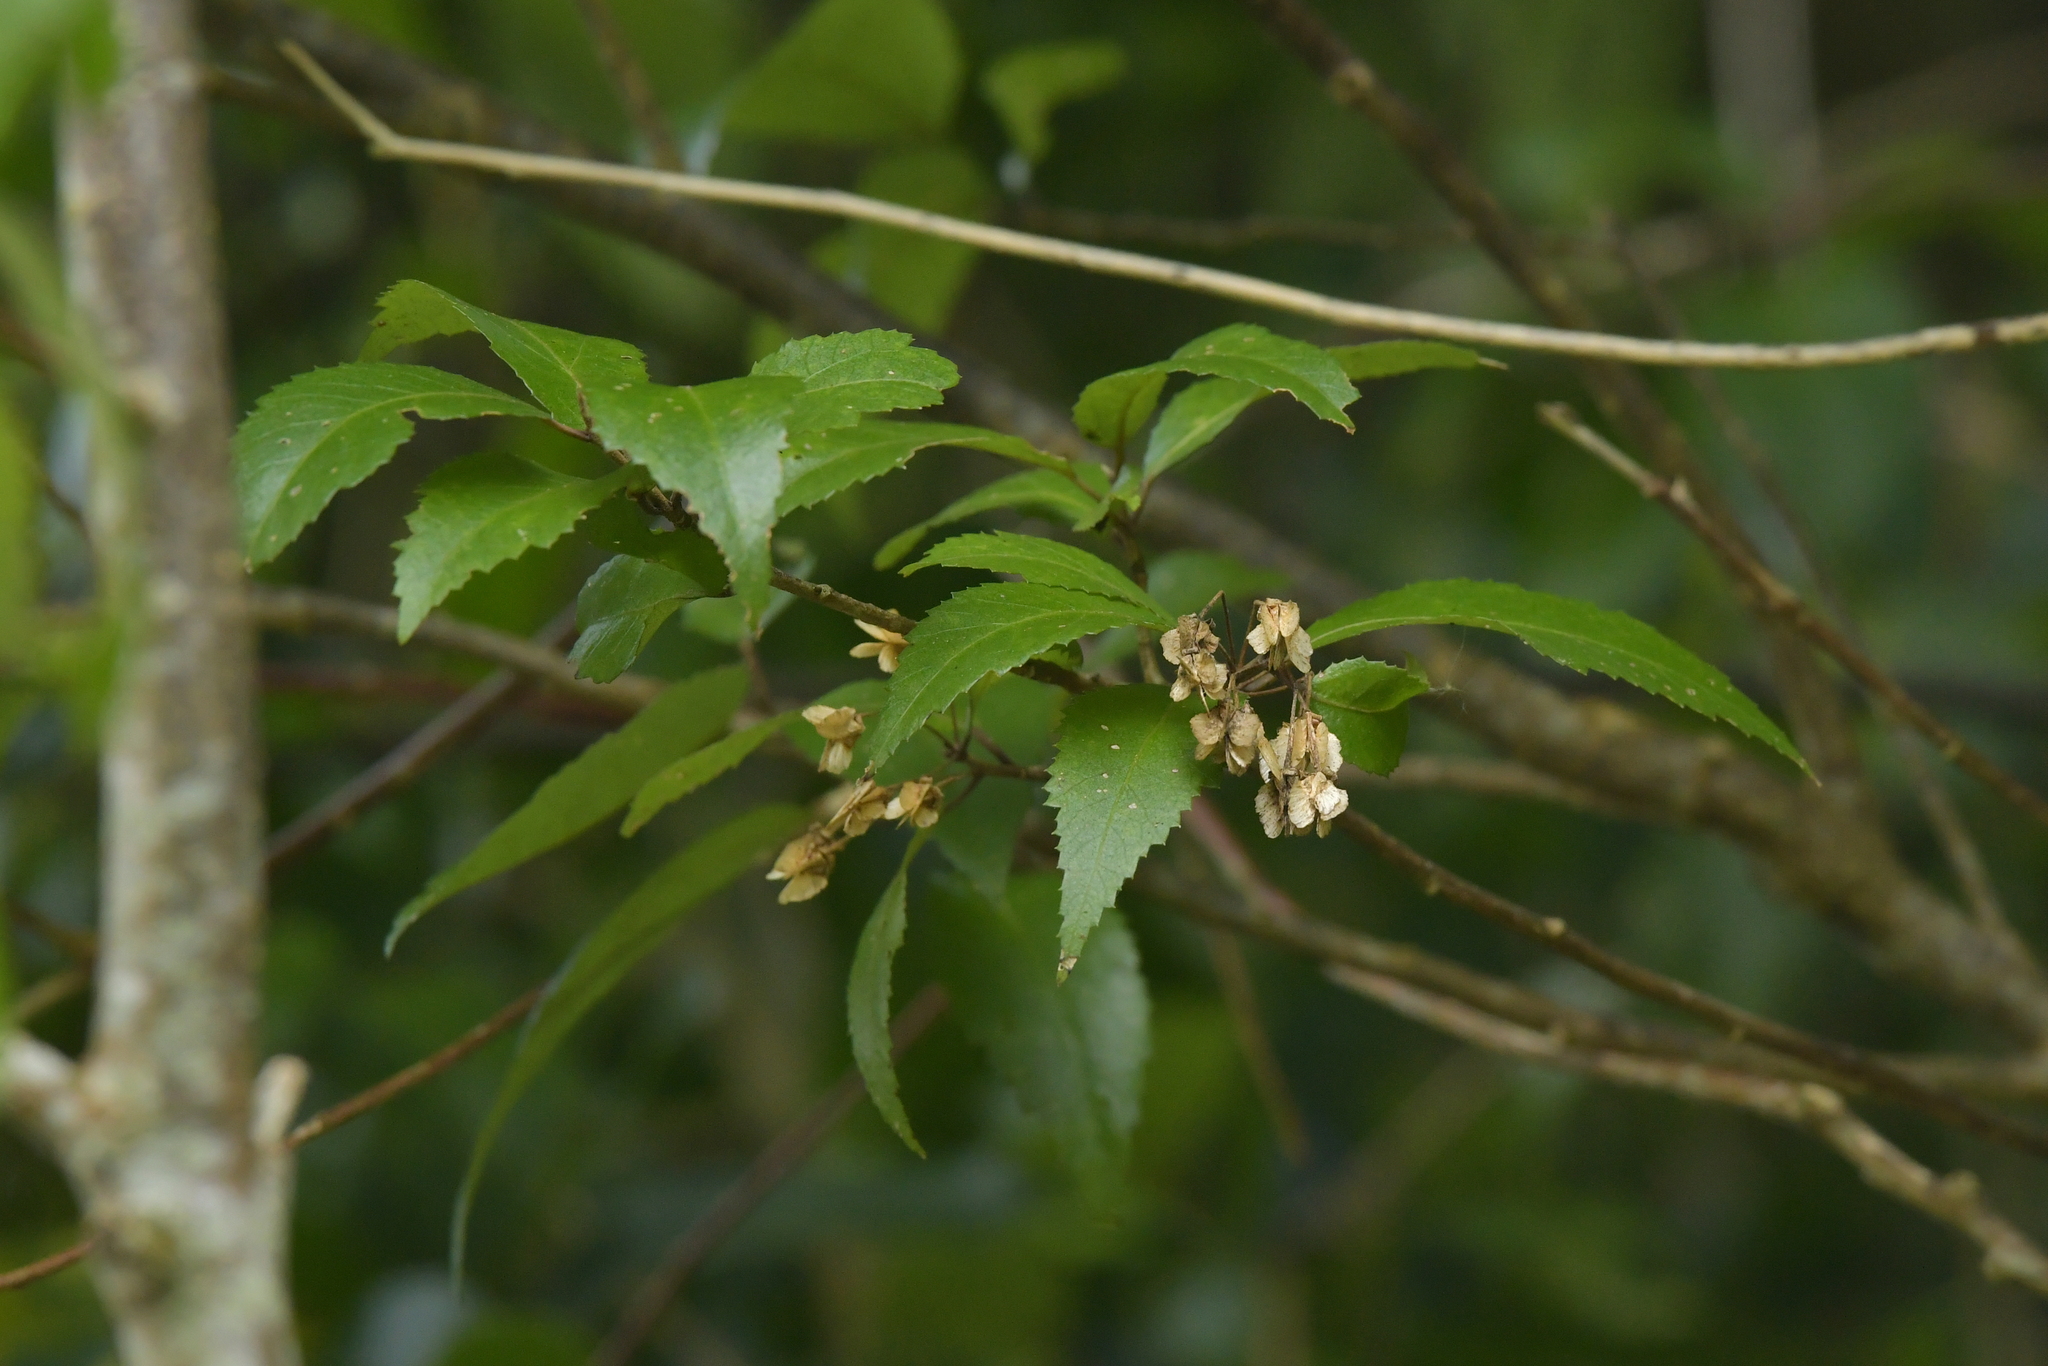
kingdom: Plantae
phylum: Tracheophyta
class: Magnoliopsida
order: Malvales
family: Malvaceae
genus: Hoheria
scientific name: Hoheria sexstylosa
